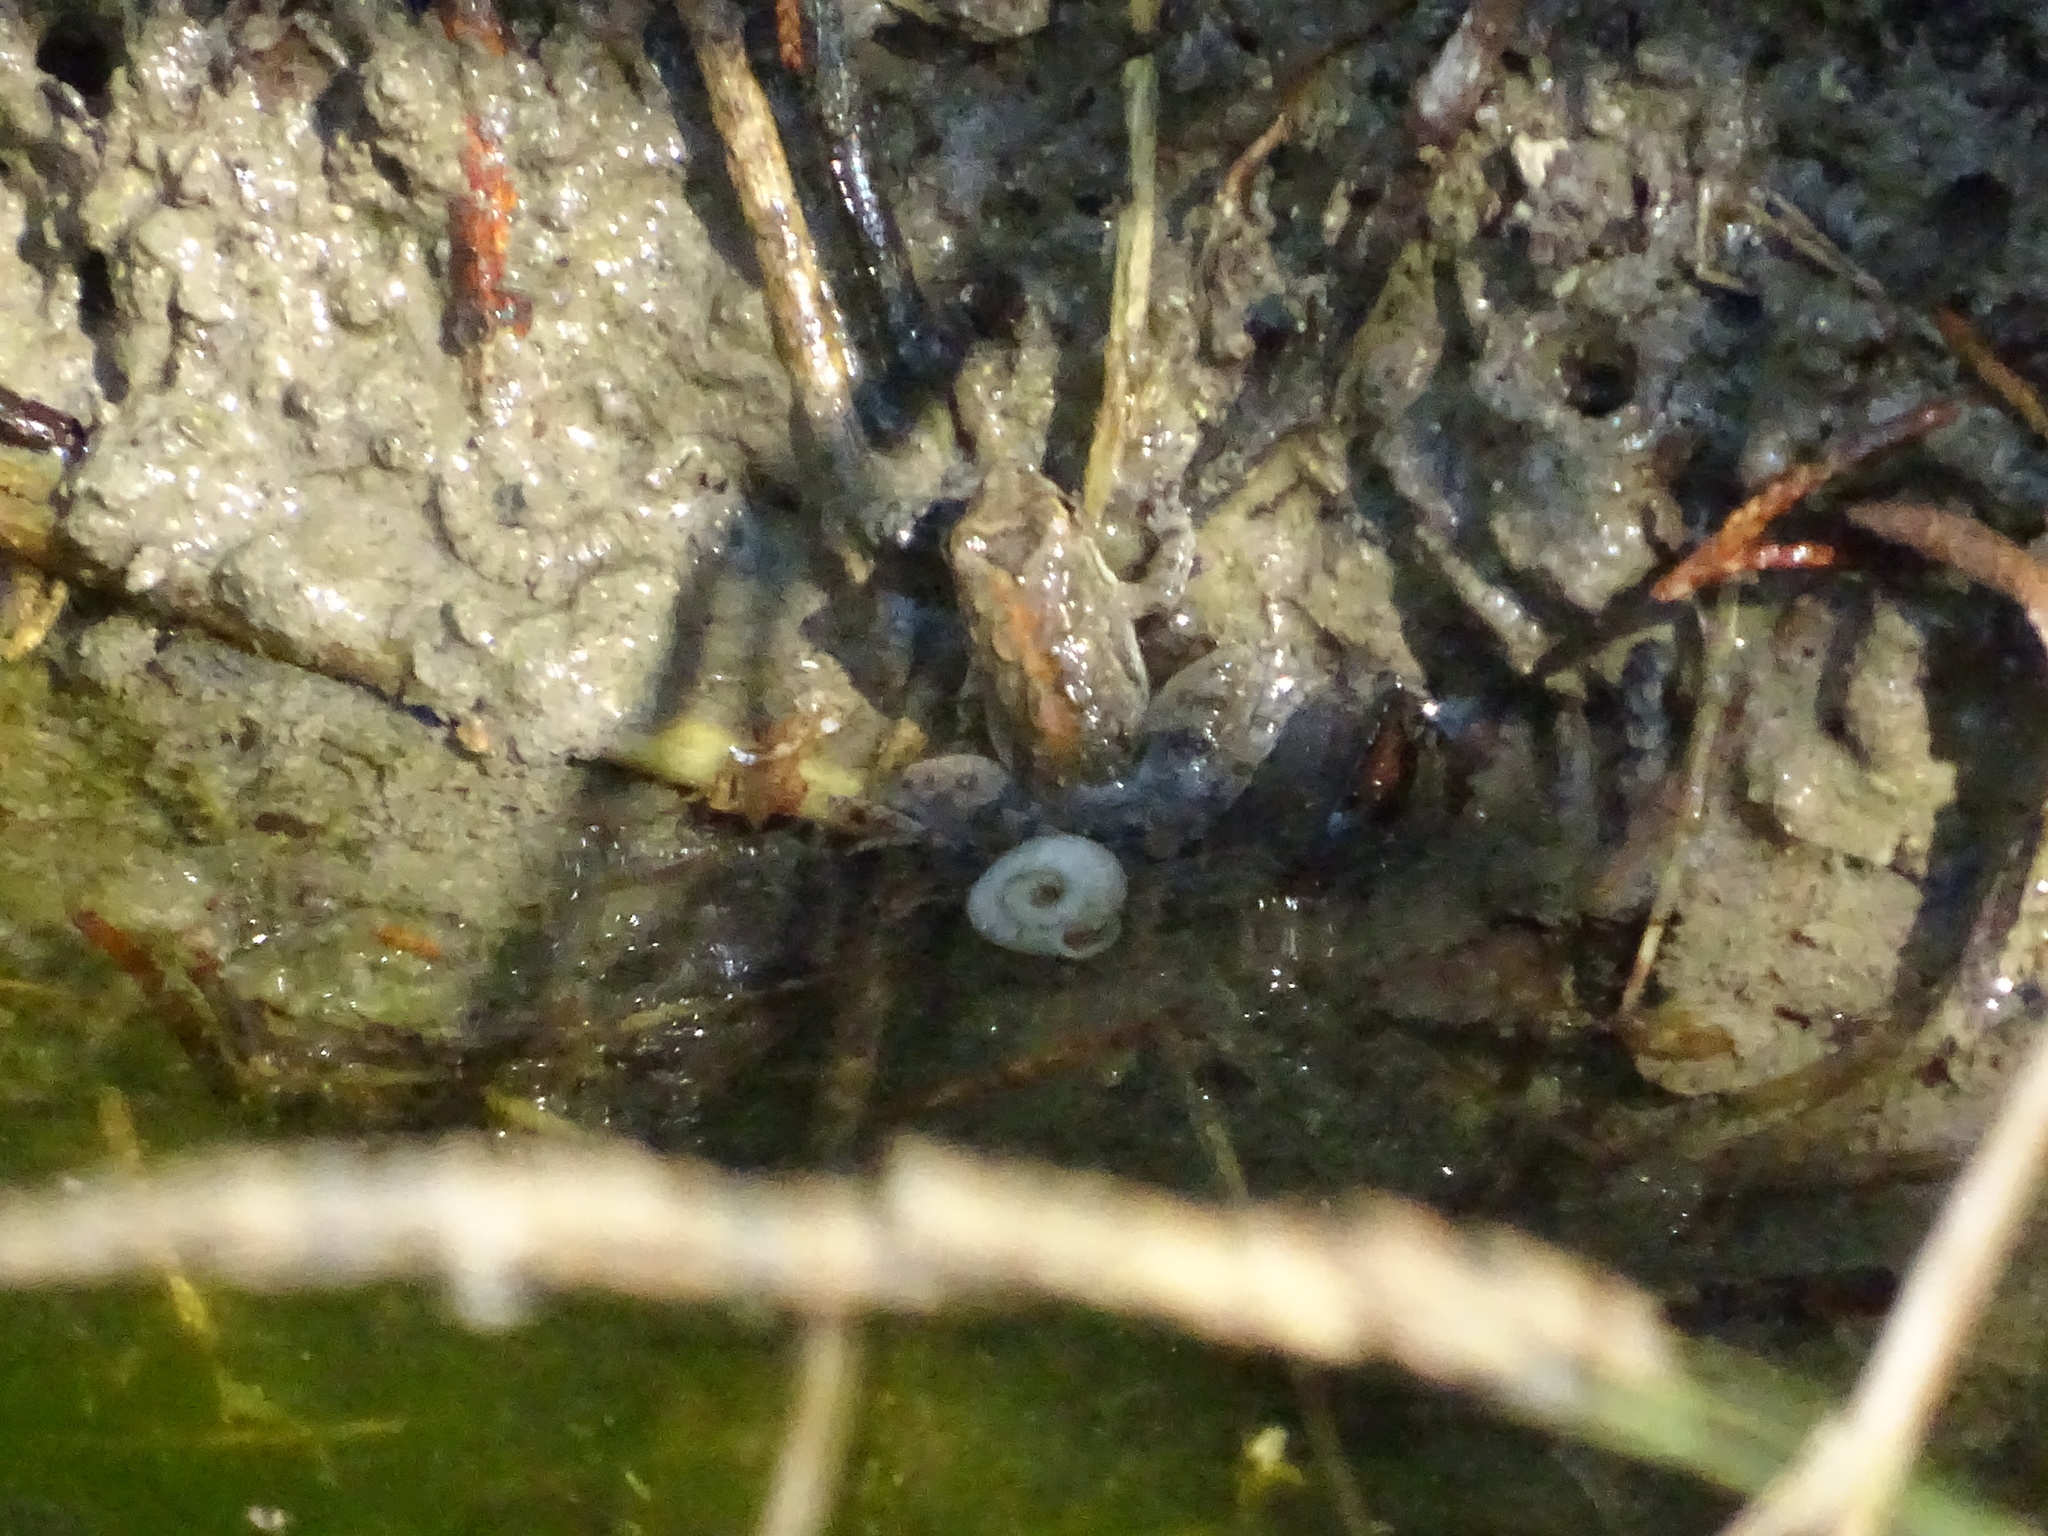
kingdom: Animalia
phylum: Chordata
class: Amphibia
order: Anura
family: Hylidae
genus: Acris
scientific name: Acris blanchardi
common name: Blanchard's cricket frog
